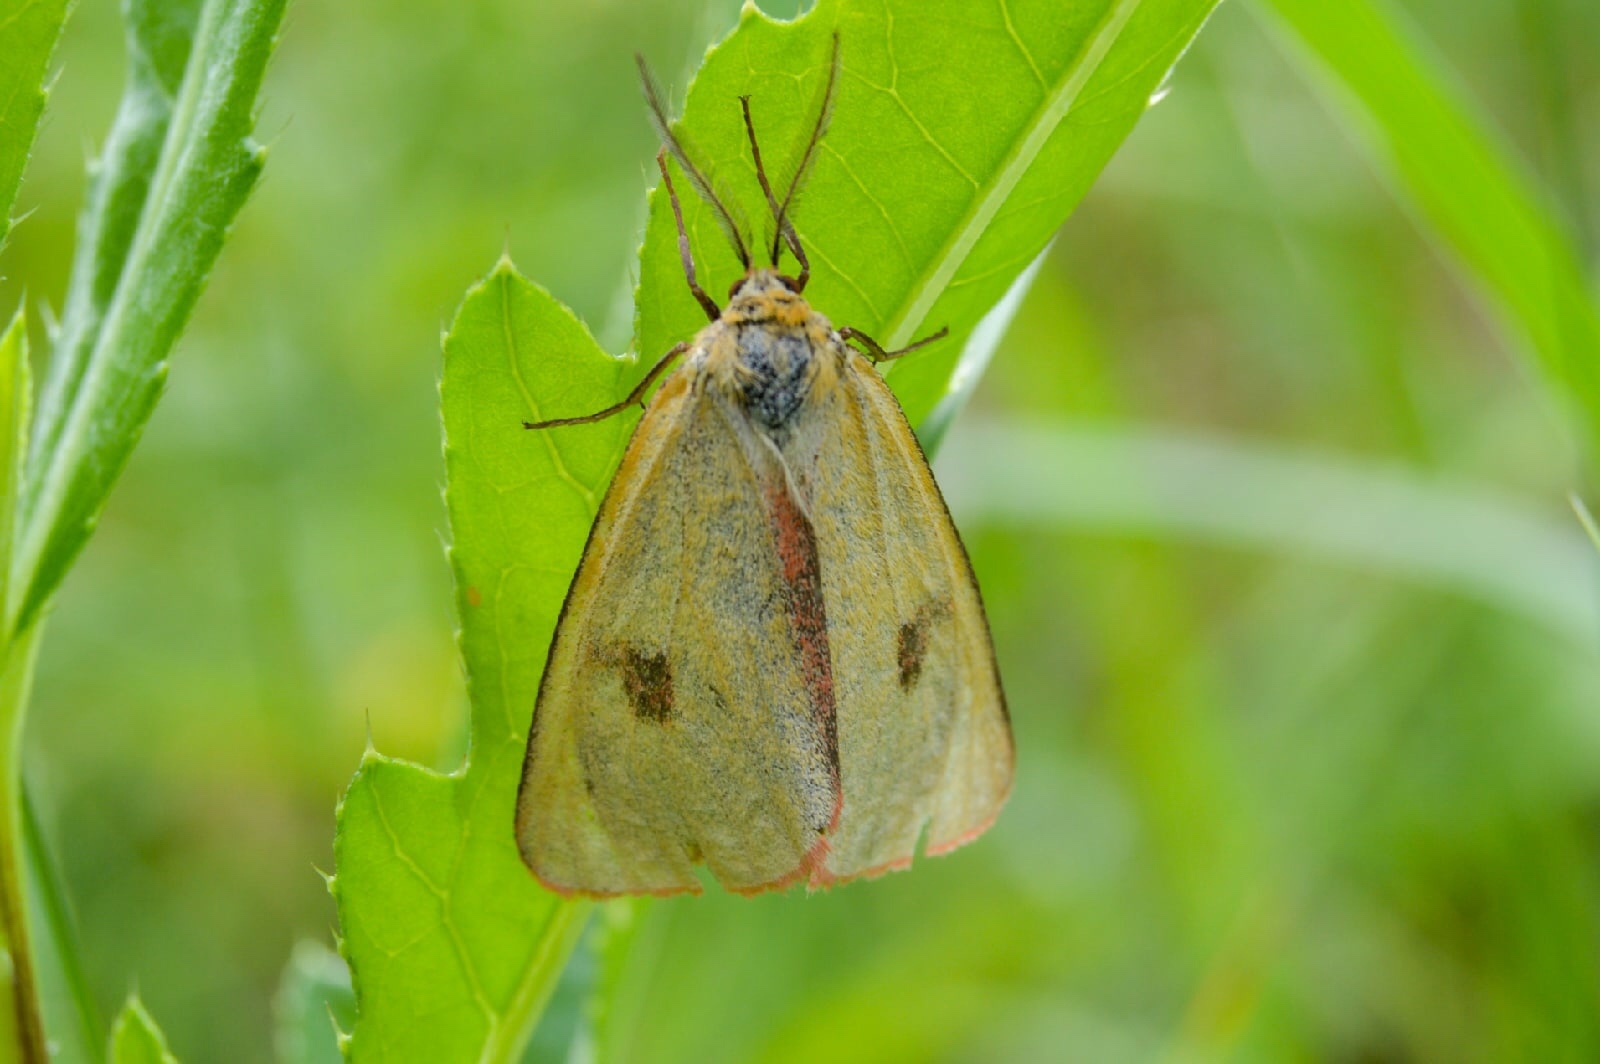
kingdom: Animalia
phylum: Arthropoda
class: Insecta
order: Lepidoptera
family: Erebidae
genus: Diacrisia
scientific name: Diacrisia sannio
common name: Clouded buff
